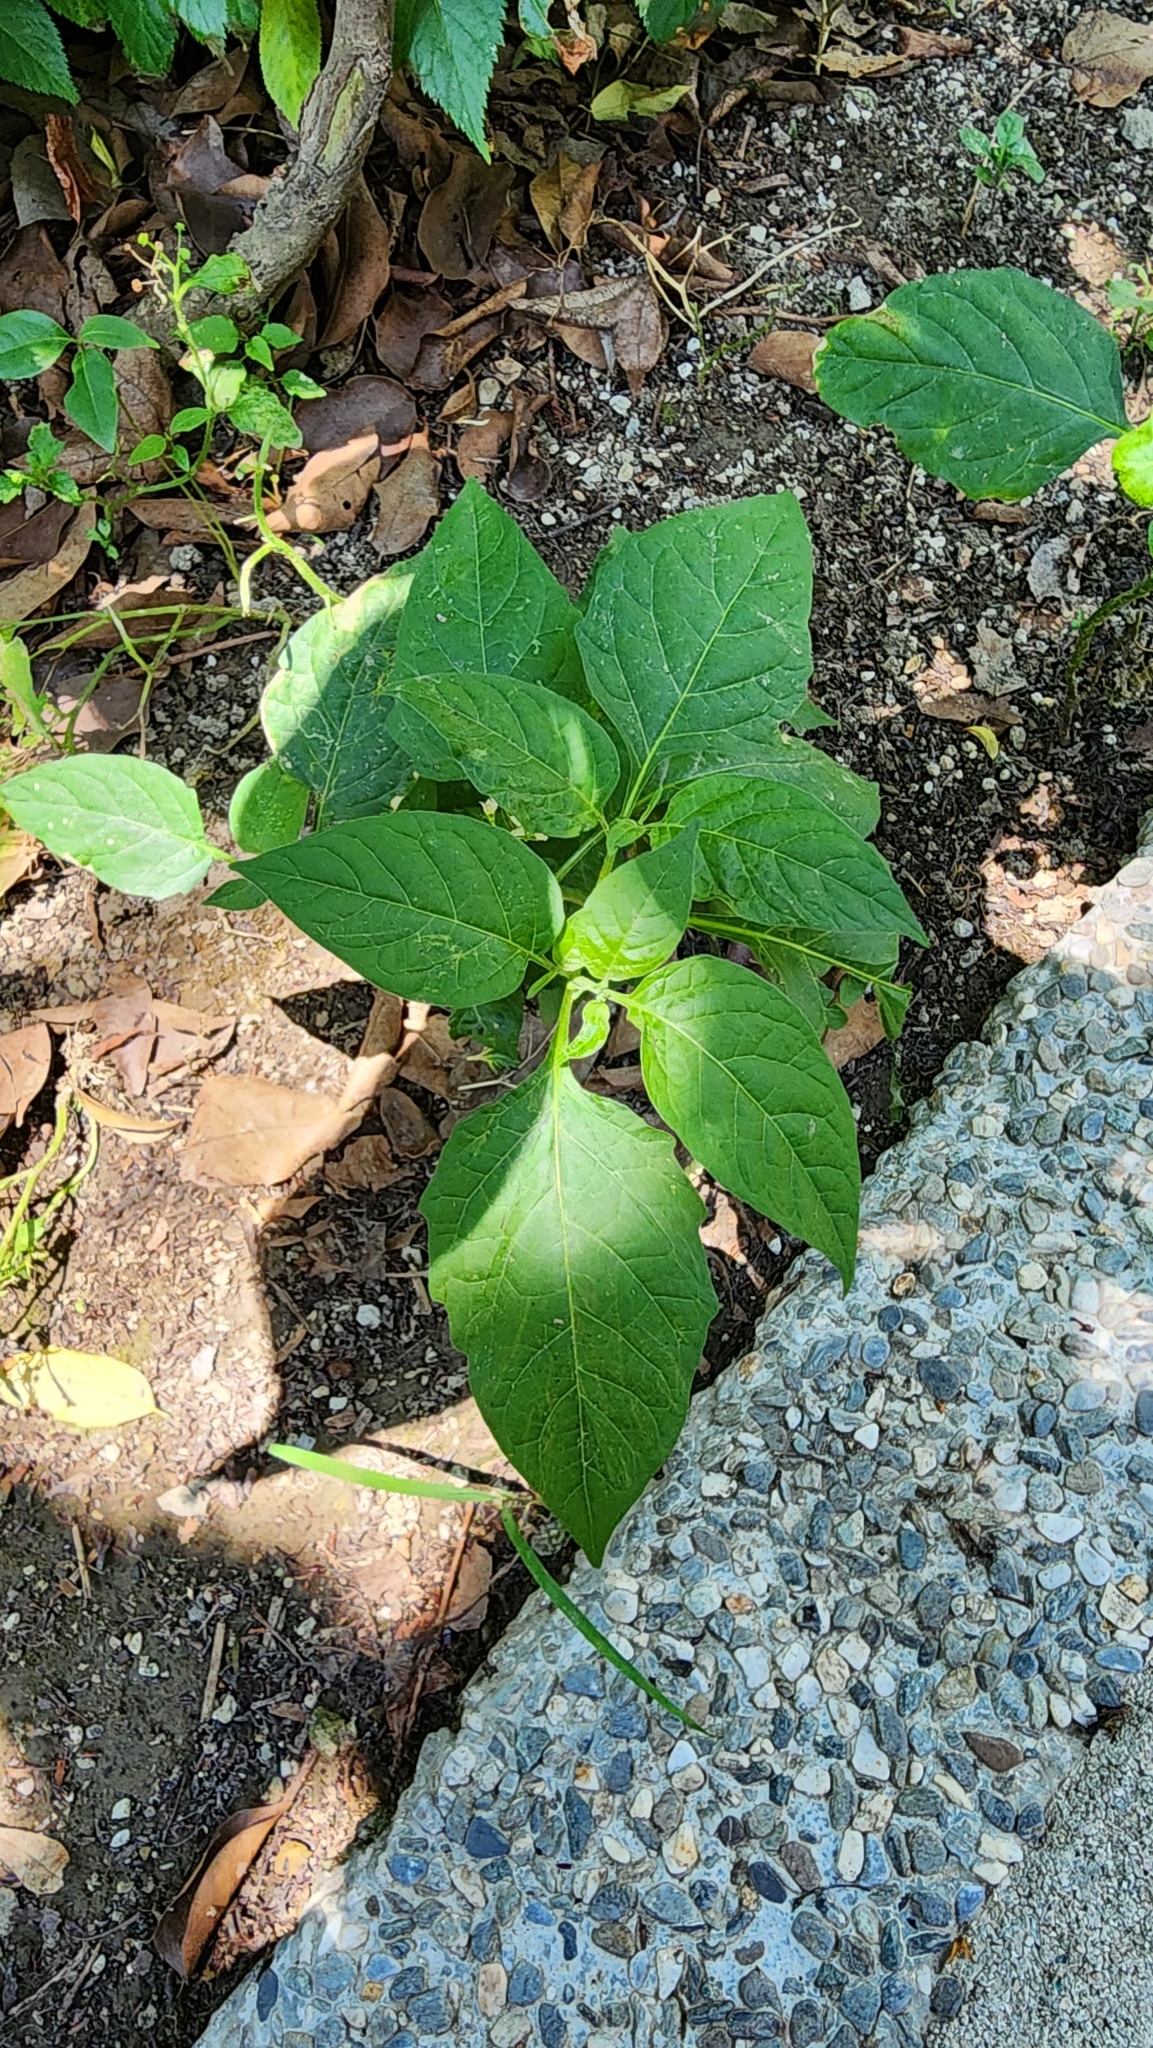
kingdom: Plantae
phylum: Tracheophyta
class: Magnoliopsida
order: Solanales
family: Solanaceae
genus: Solanum
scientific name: Solanum
